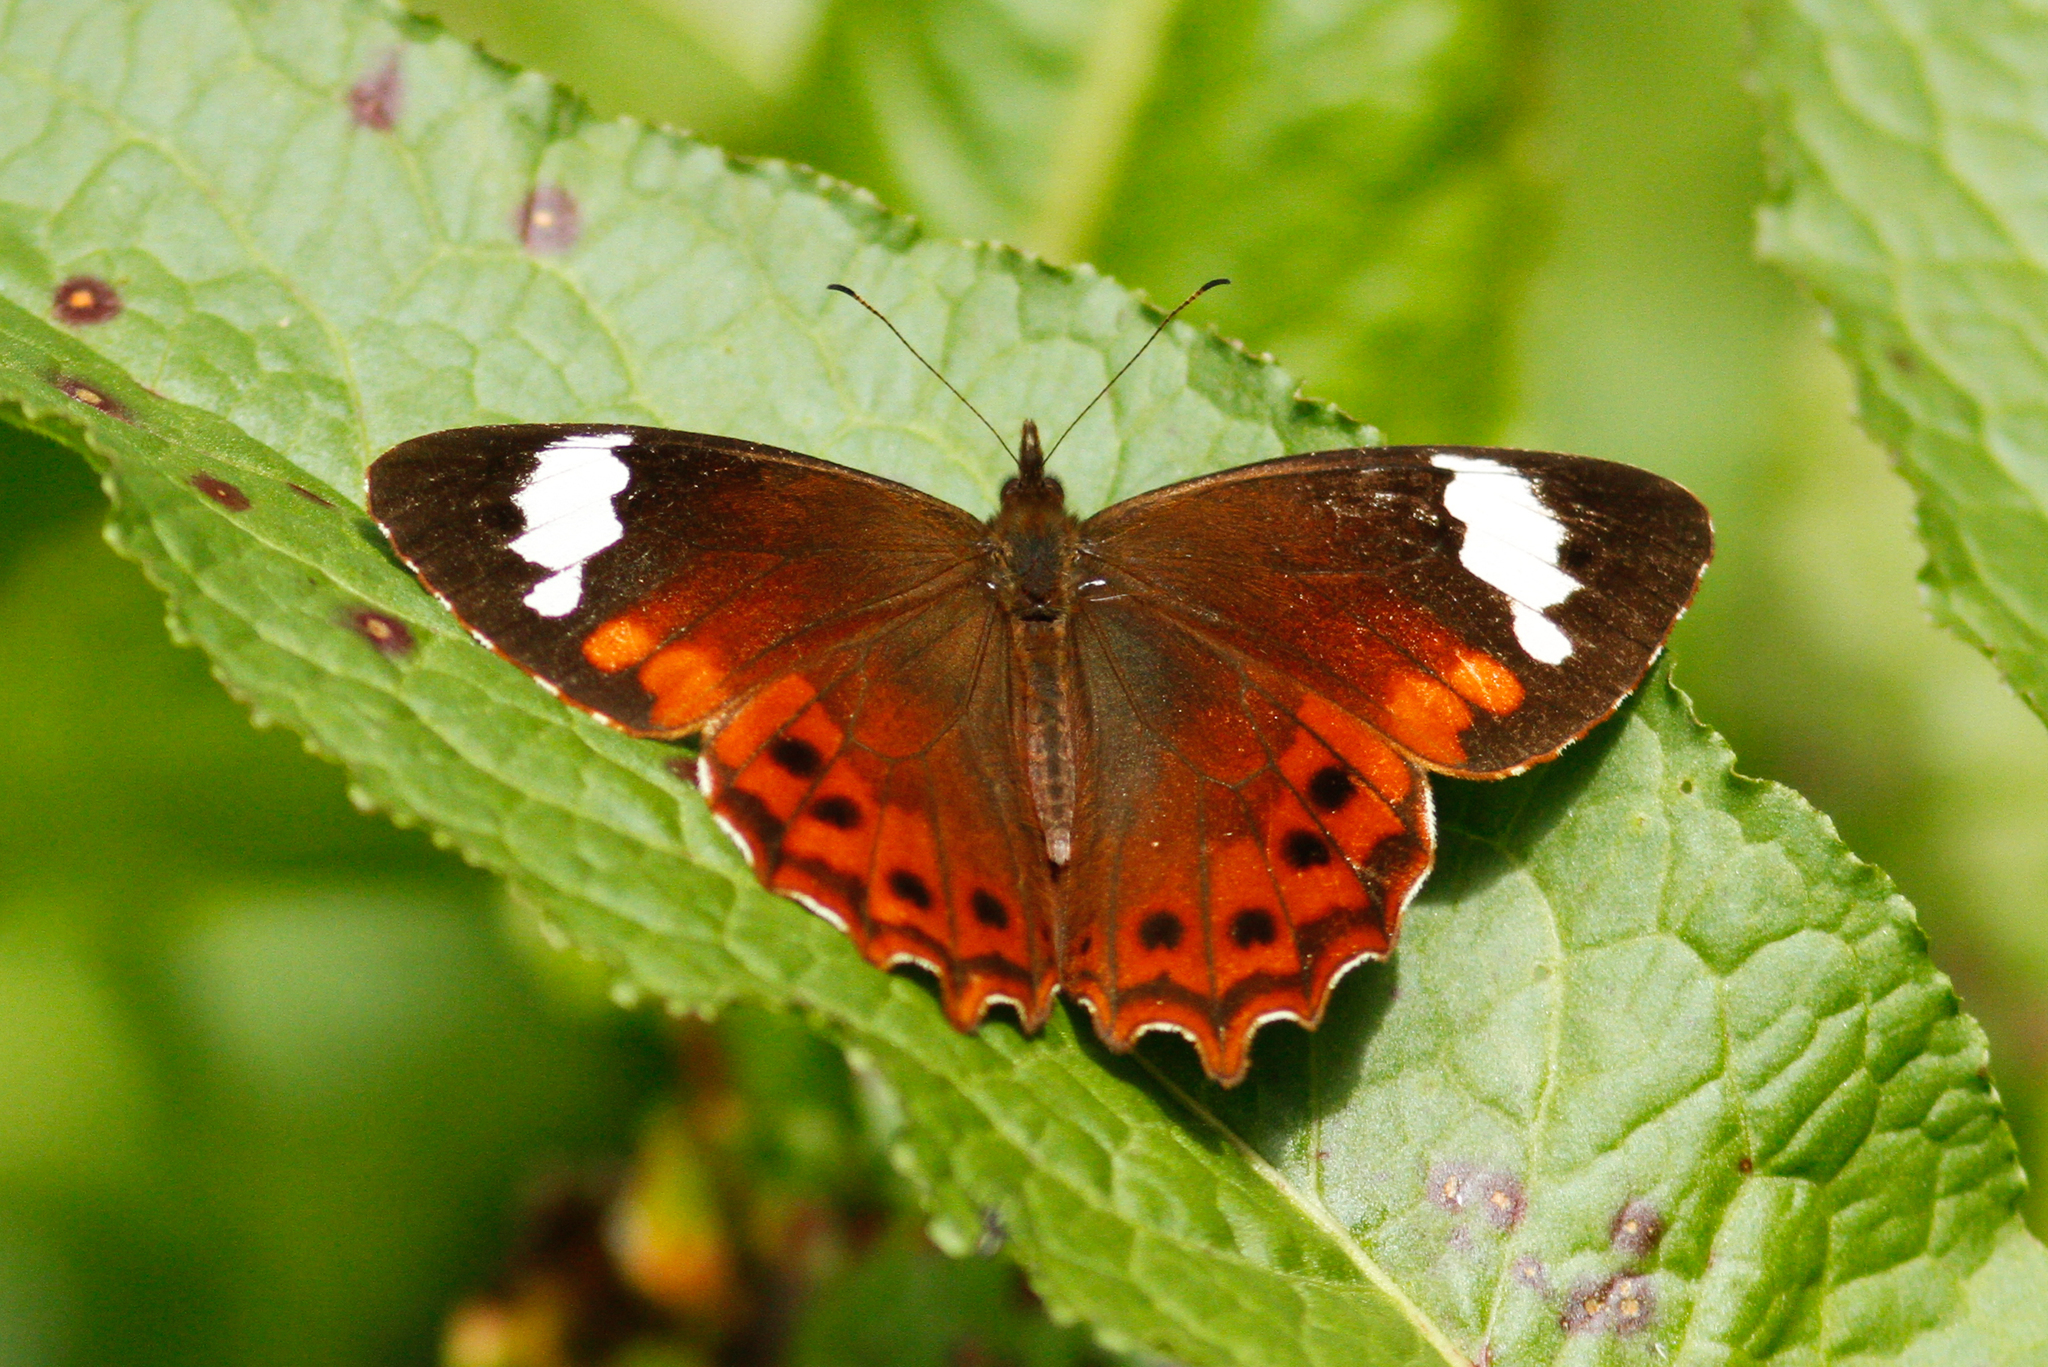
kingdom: Animalia
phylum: Arthropoda
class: Insecta
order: Lepidoptera
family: Nymphalidae
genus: Lasiophila
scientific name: Lasiophila prosymna
